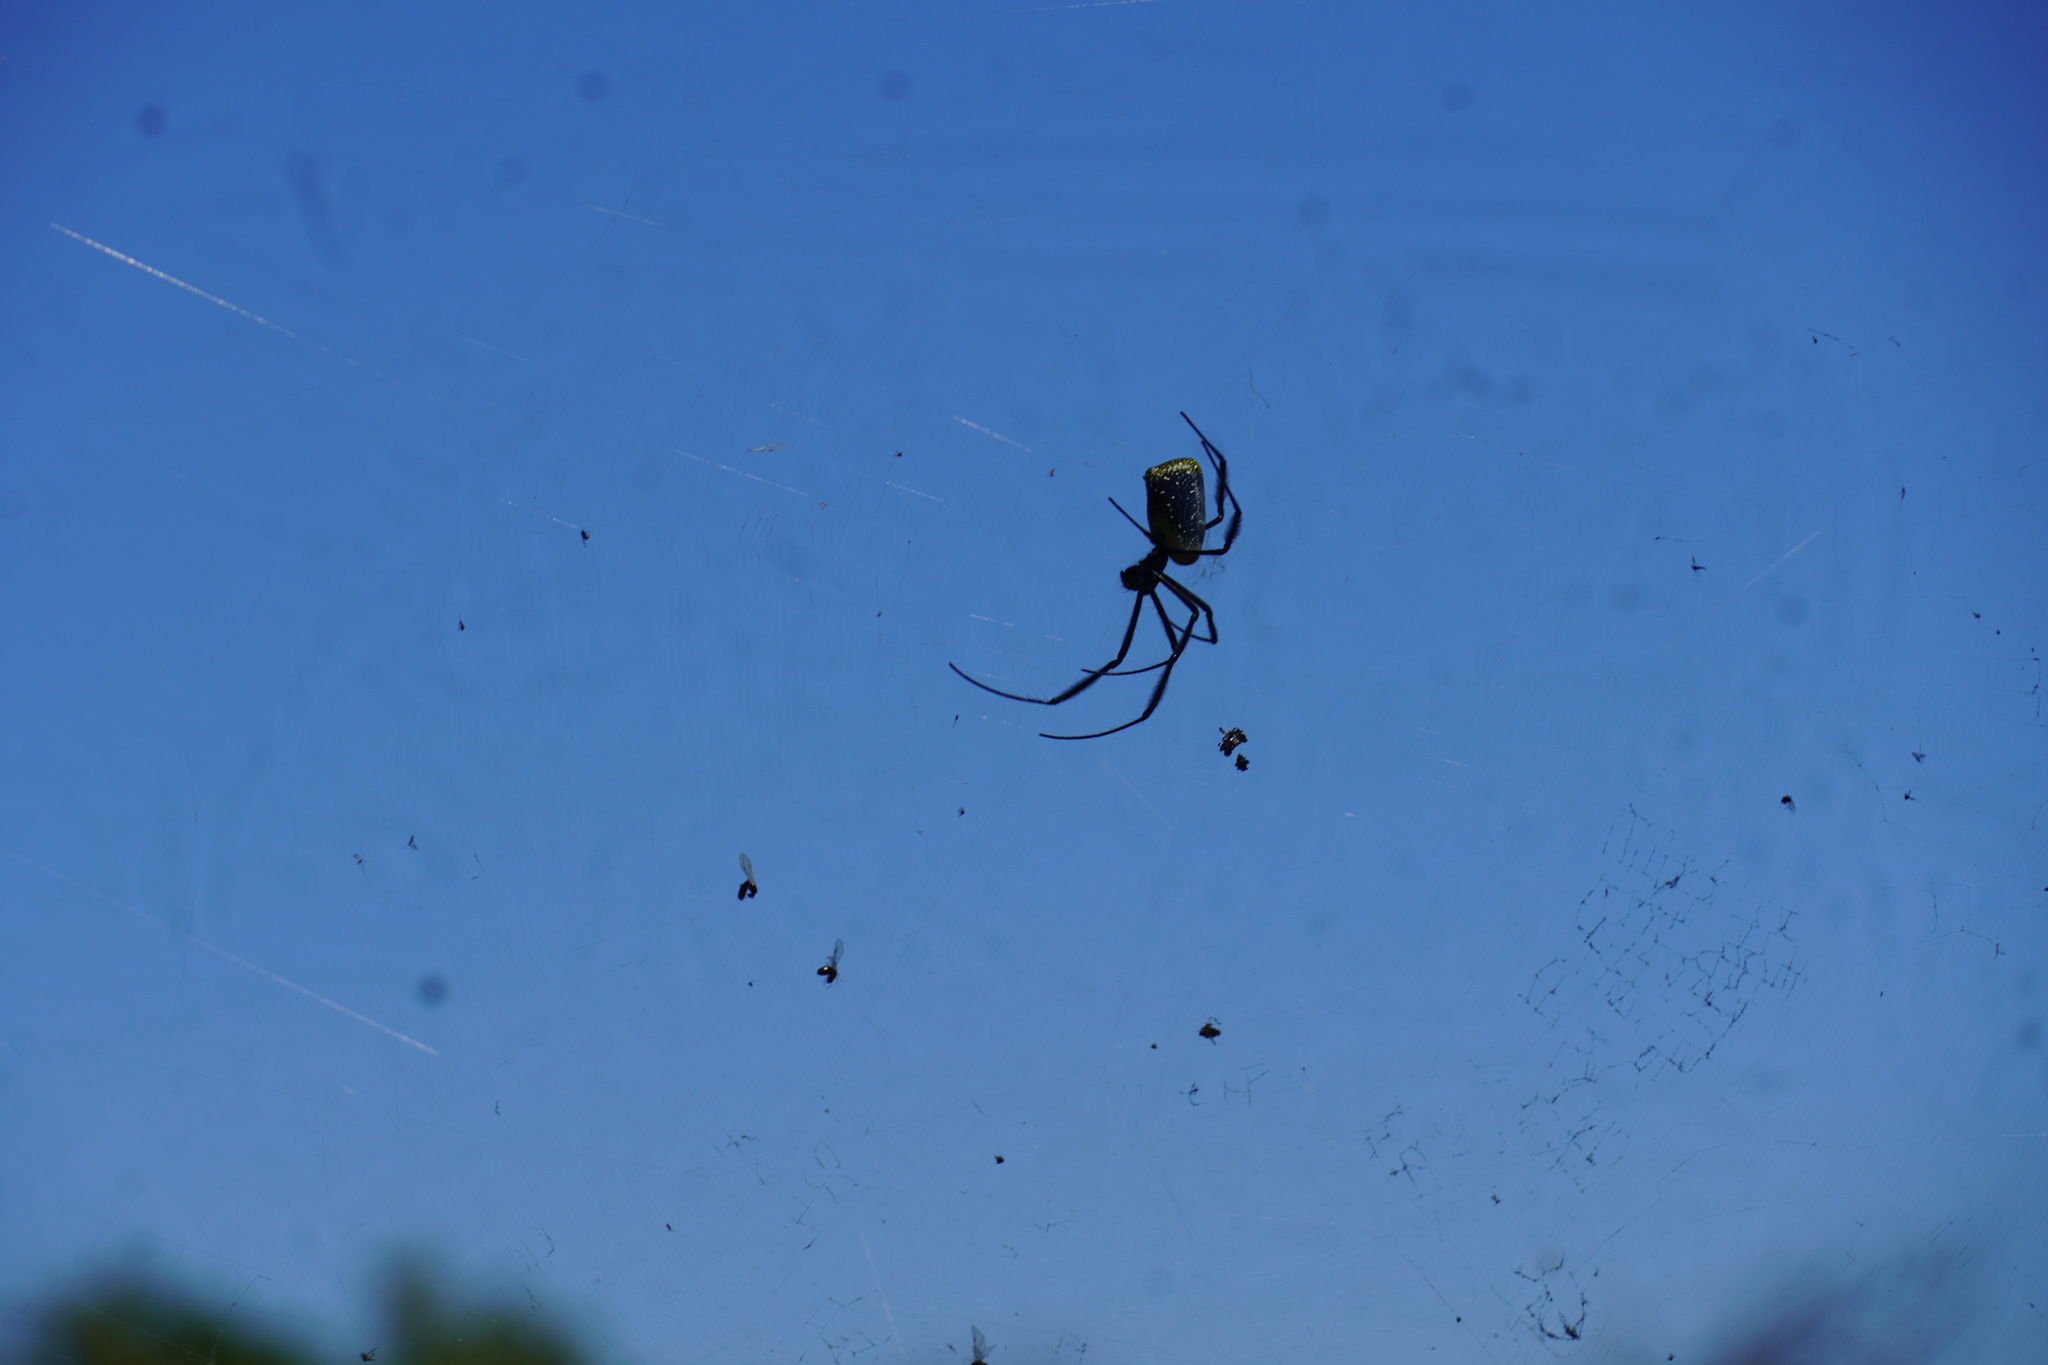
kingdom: Animalia
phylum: Arthropoda
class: Arachnida
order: Araneae
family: Araneidae
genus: Trichonephila
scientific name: Trichonephila fenestrata
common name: Hairy golden orb weaver
